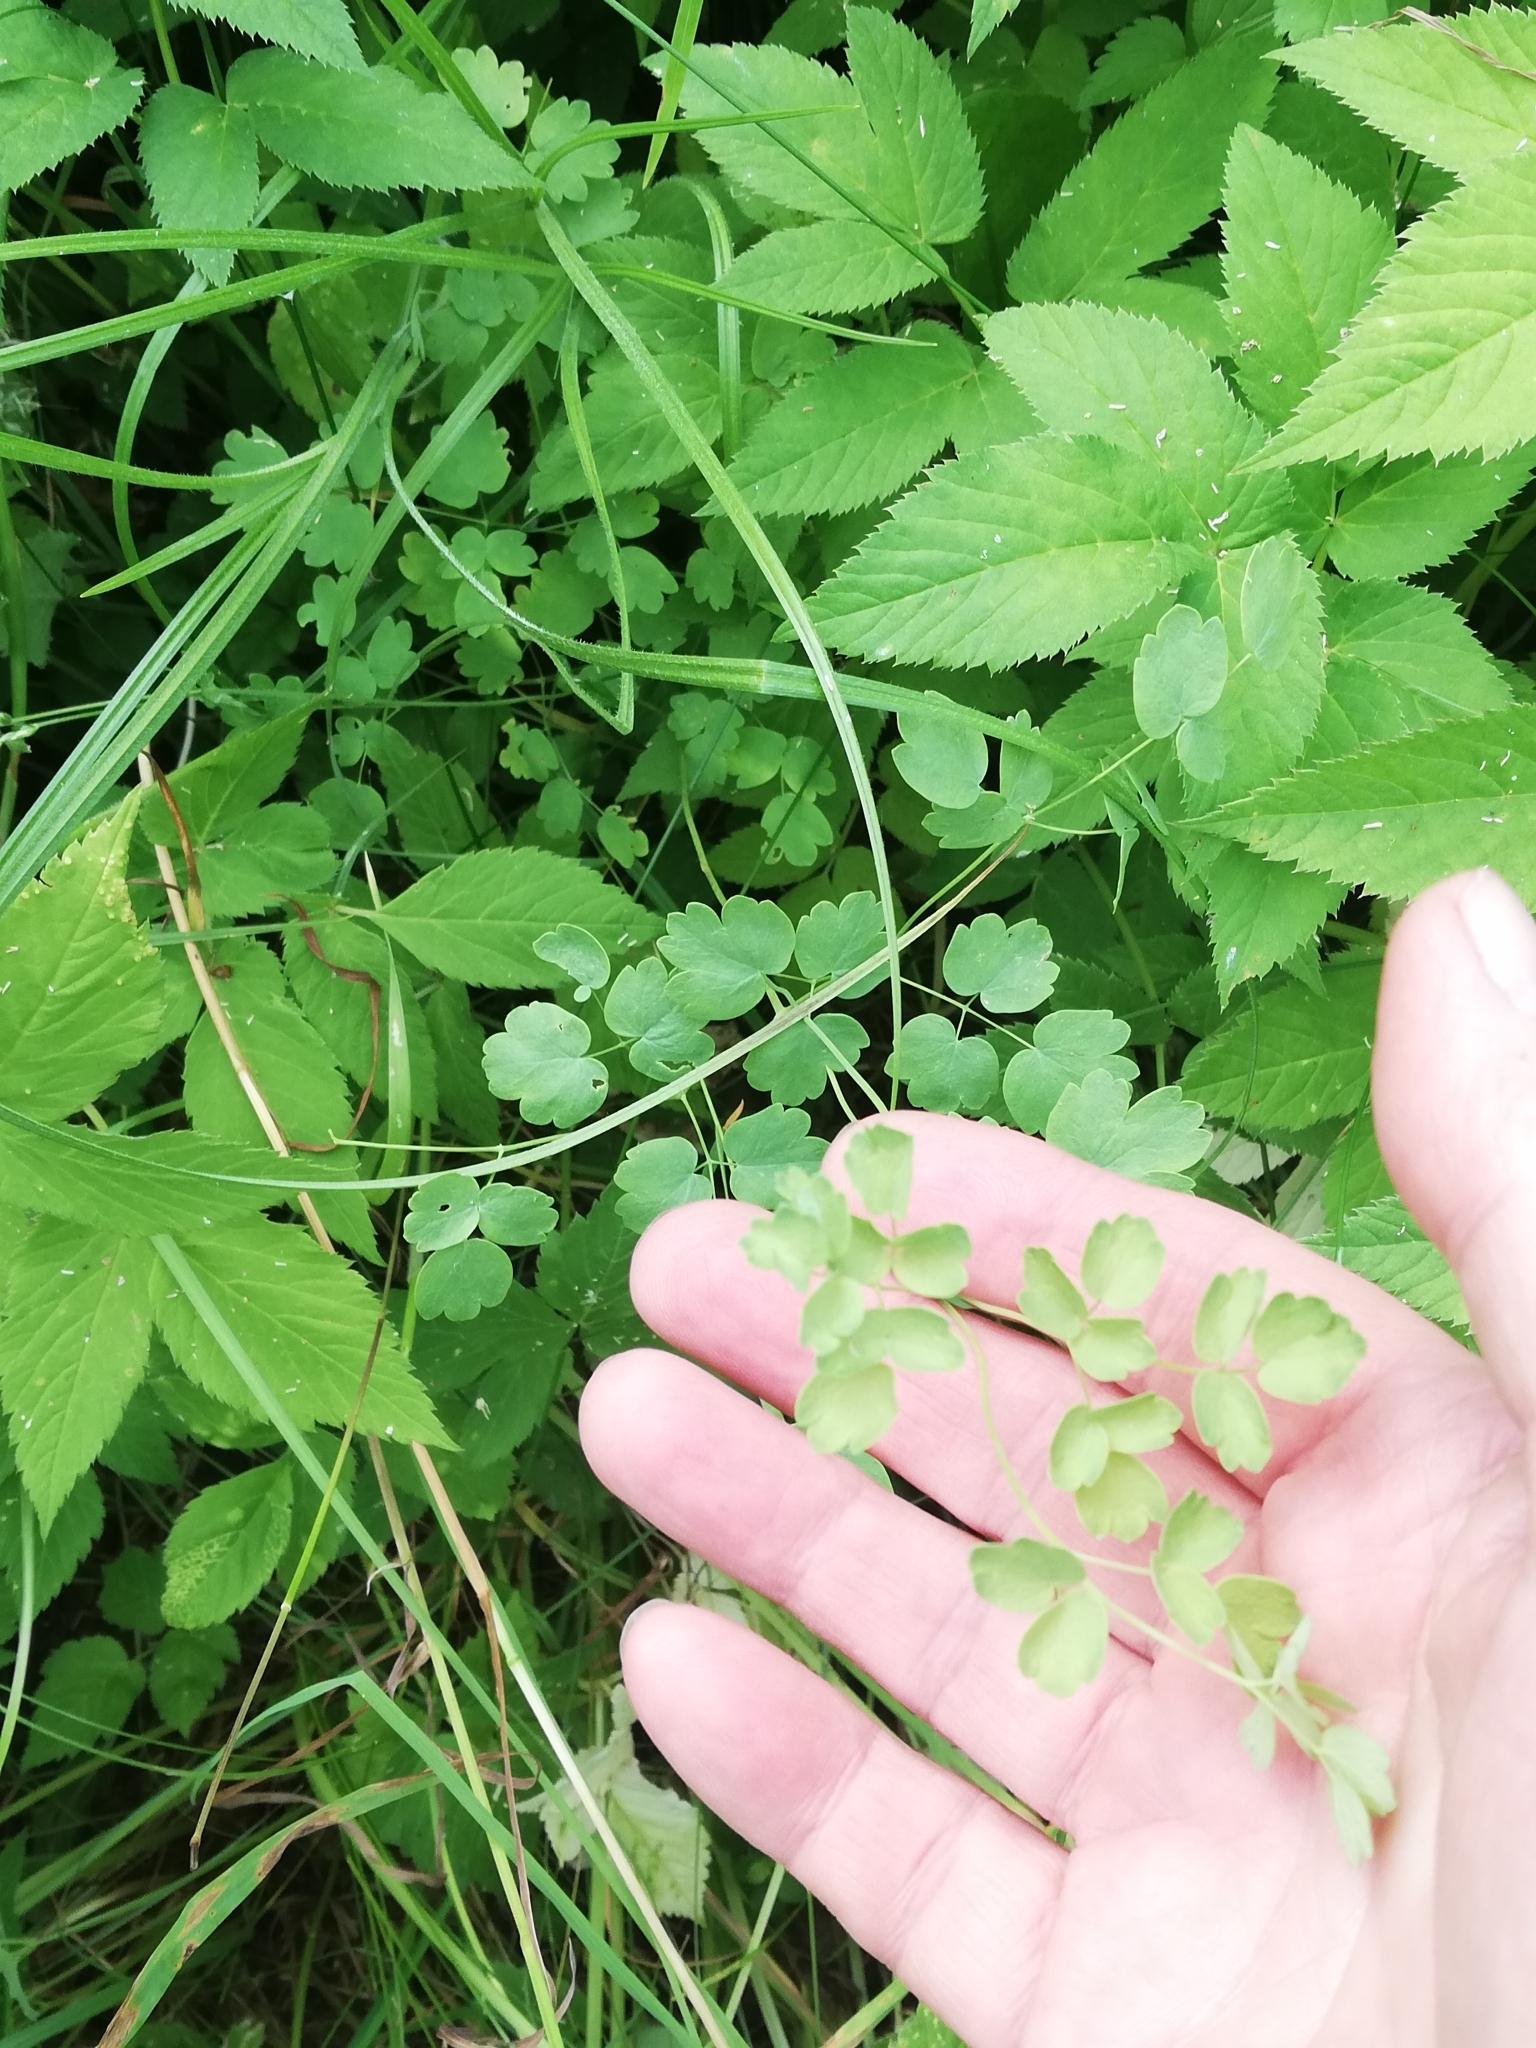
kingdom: Plantae
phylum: Tracheophyta
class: Magnoliopsida
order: Ranunculales
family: Ranunculaceae
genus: Thalictrum
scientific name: Thalictrum minus
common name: Lesser meadow-rue
